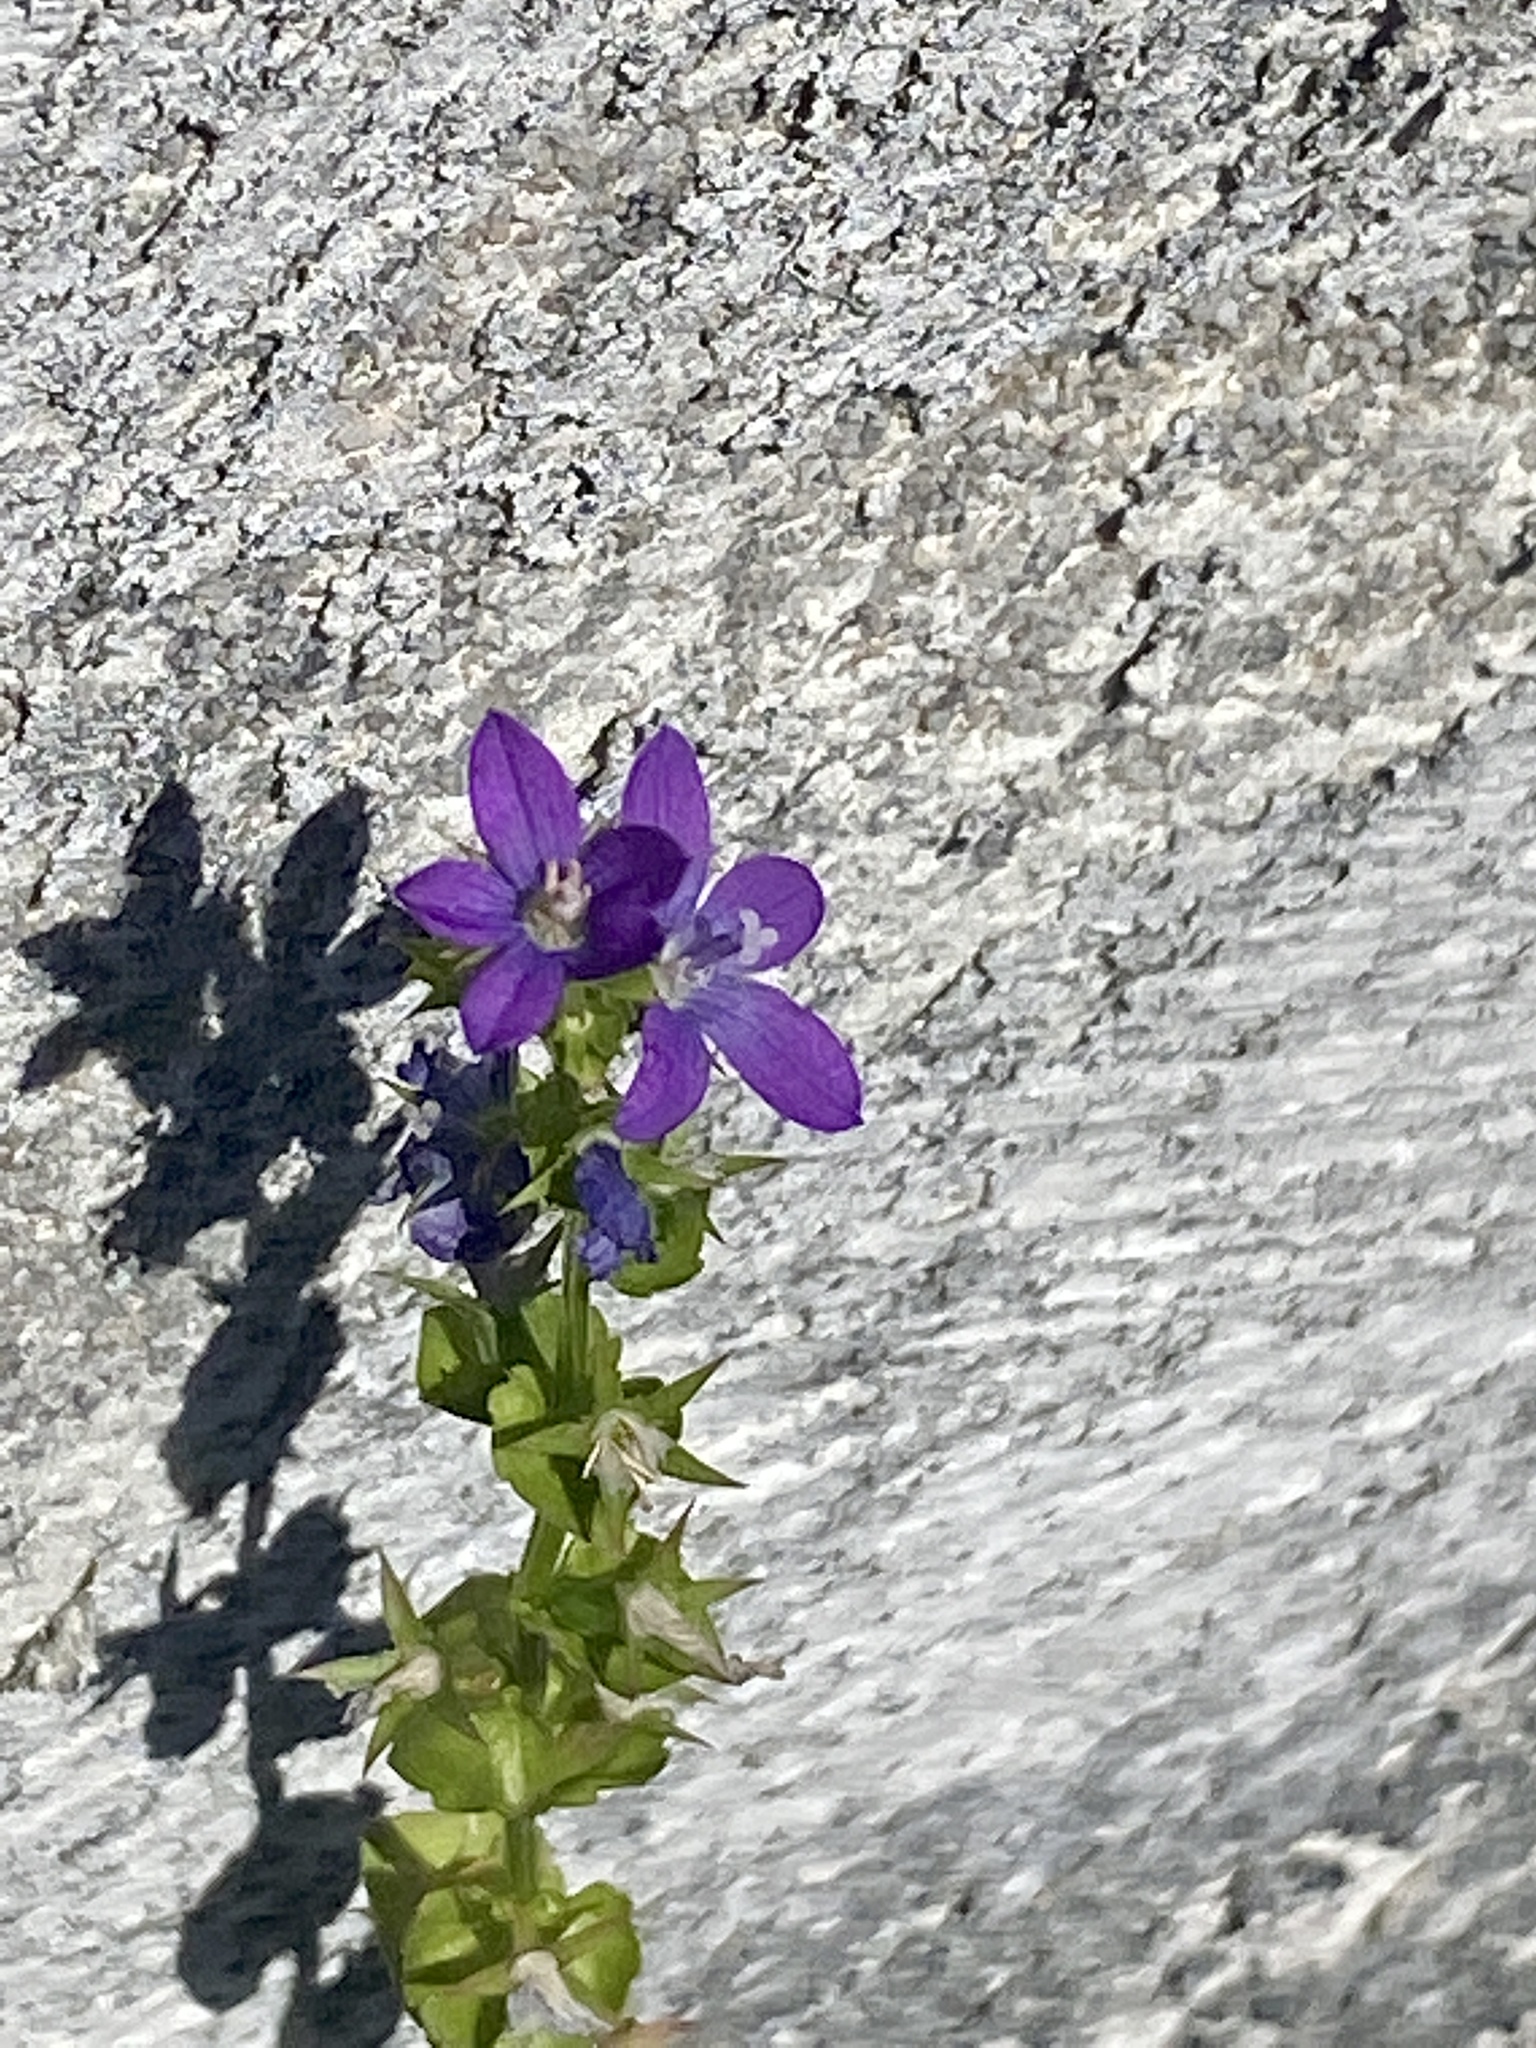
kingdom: Plantae
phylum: Tracheophyta
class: Magnoliopsida
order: Asterales
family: Campanulaceae
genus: Triodanis
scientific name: Triodanis perfoliata
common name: Clasping venus' looking-glass
